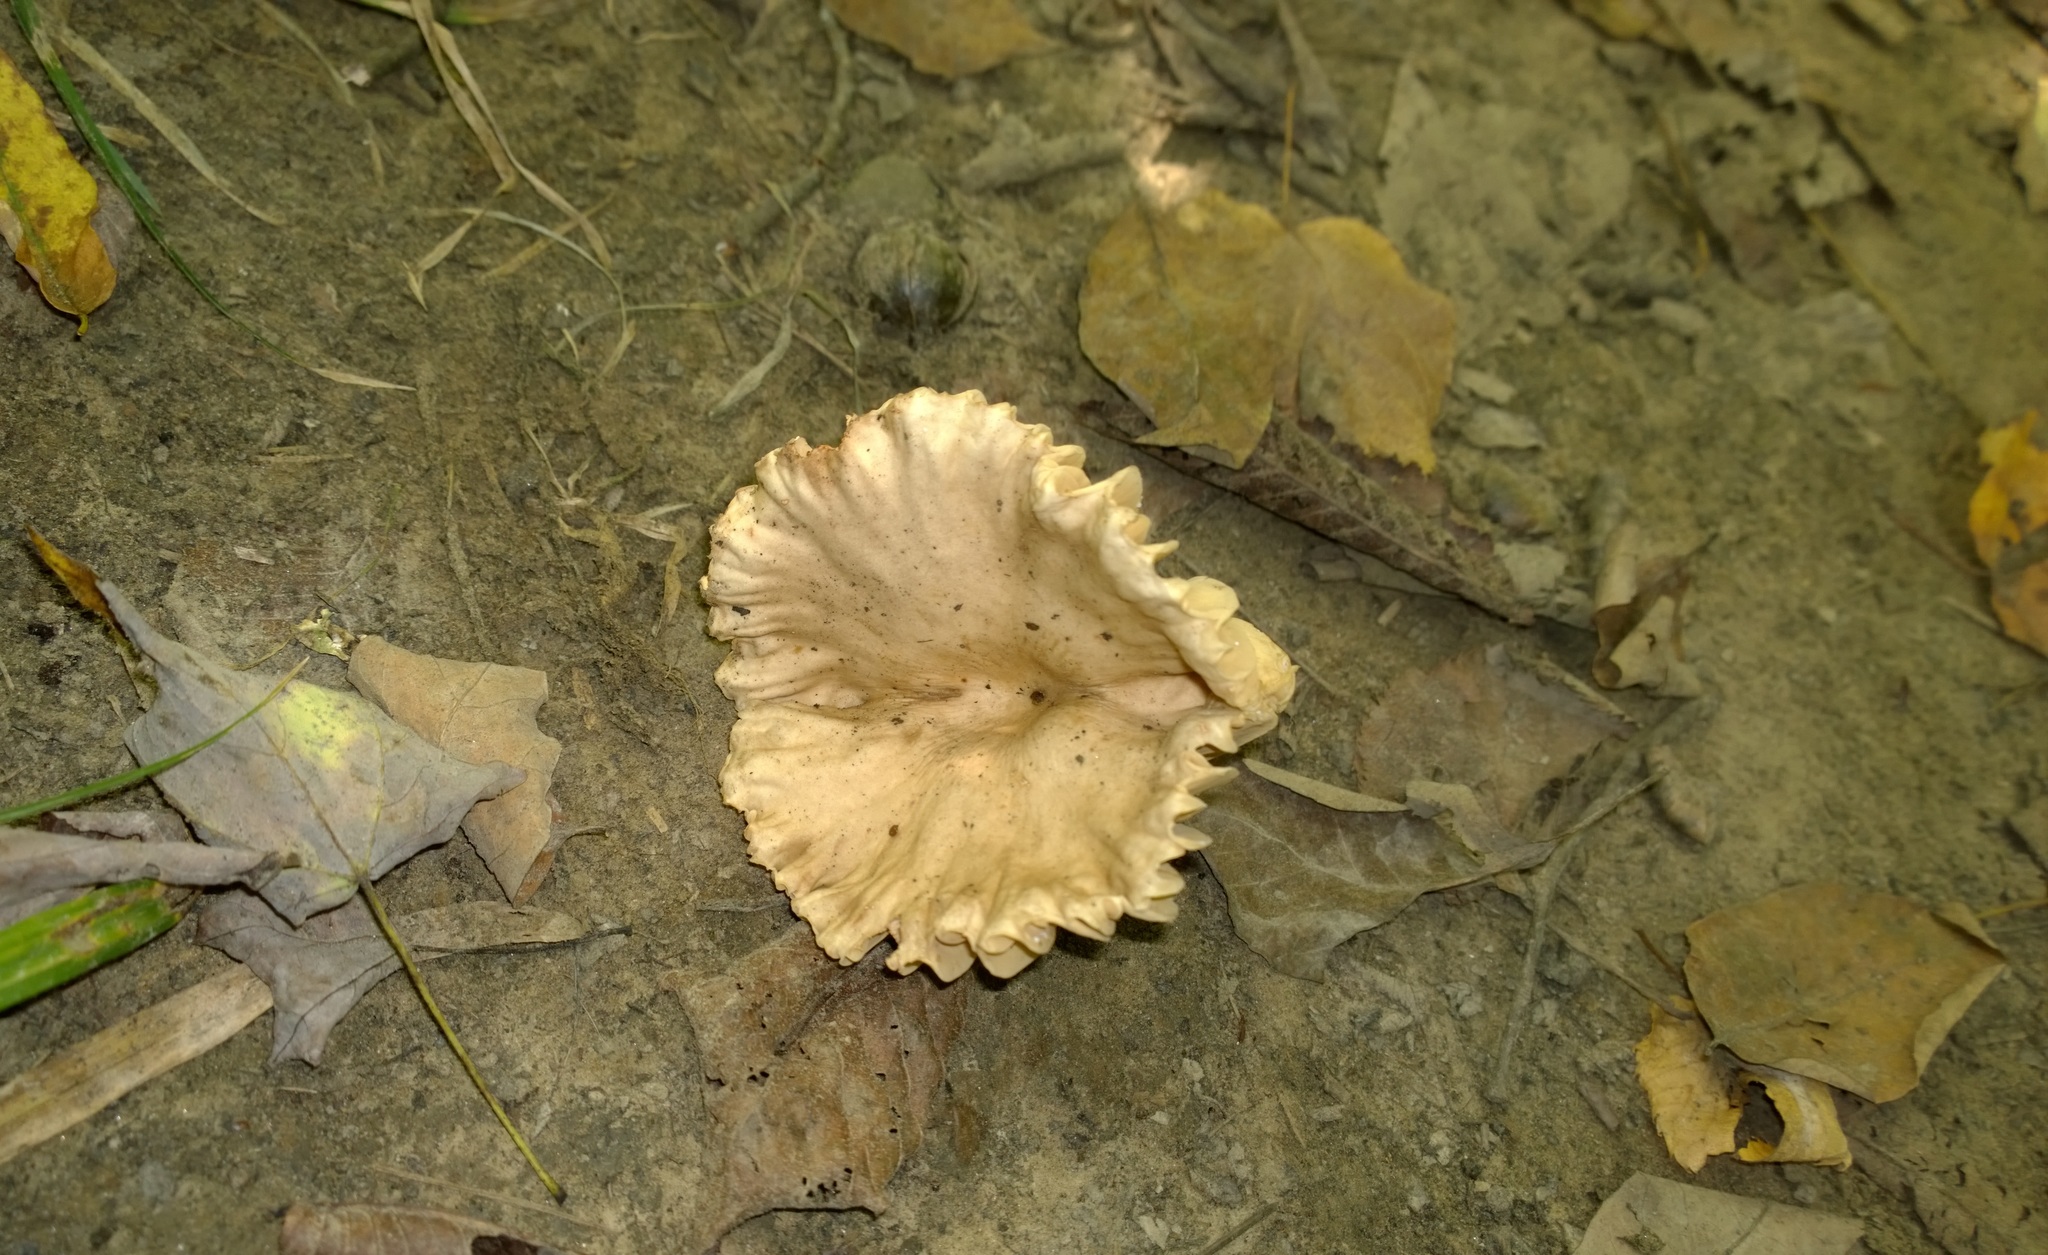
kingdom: Fungi
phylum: Basidiomycota
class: Agaricomycetes
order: Russulales
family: Russulaceae
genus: Lactarius
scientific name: Lactarius subplinthogalus
